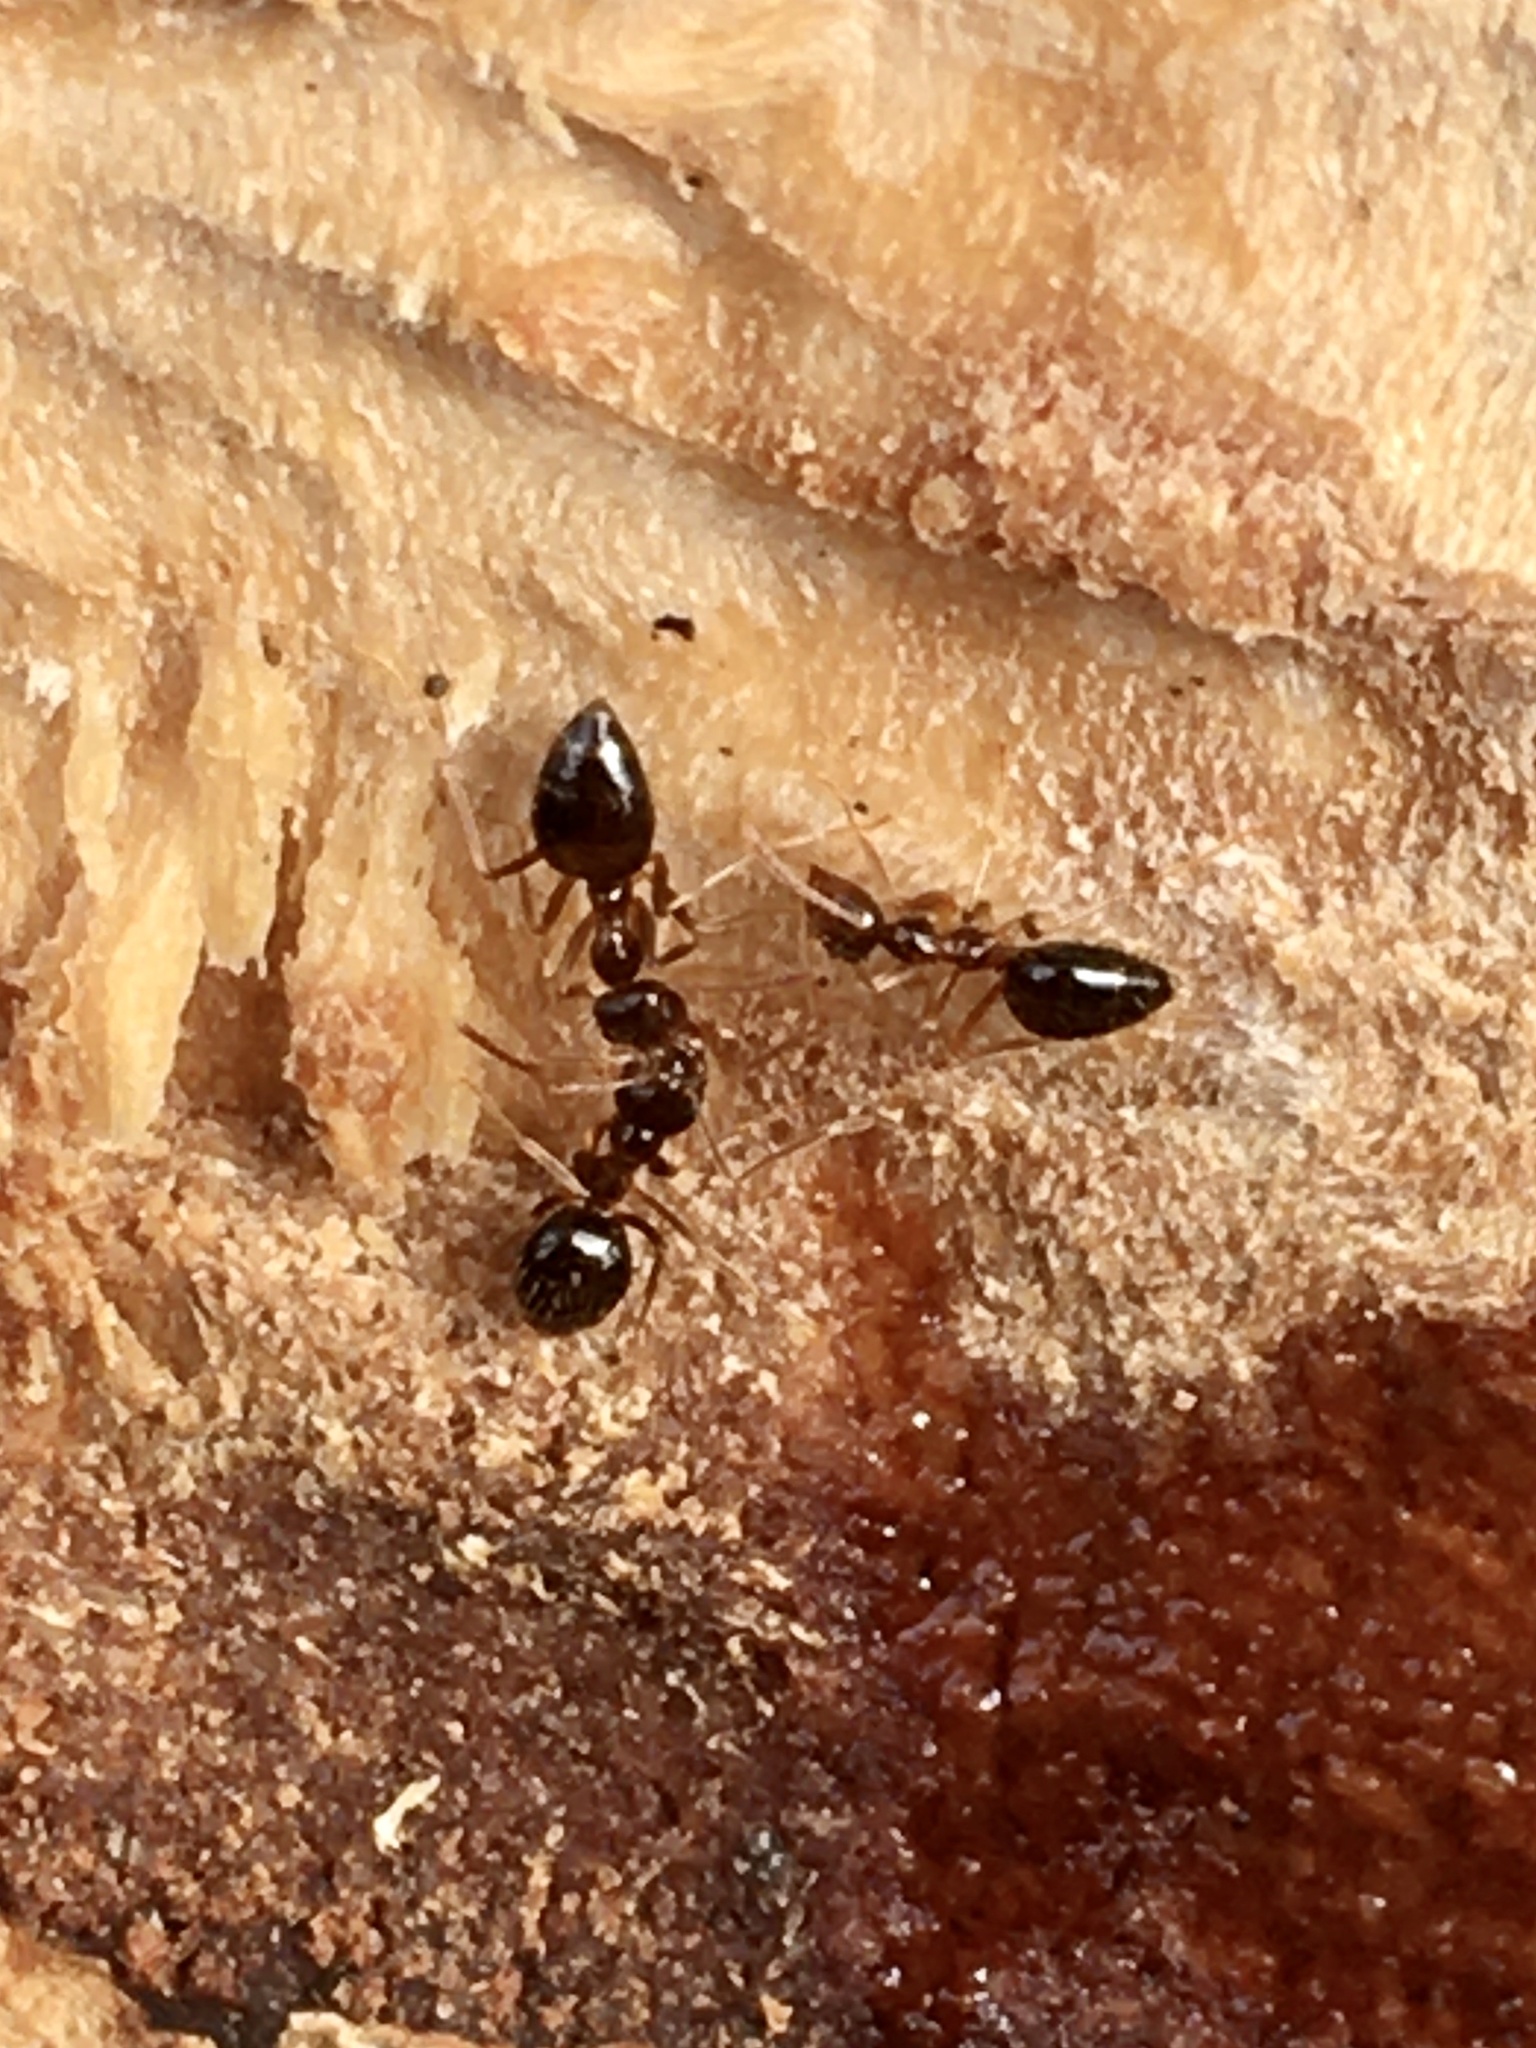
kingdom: Animalia
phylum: Arthropoda
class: Insecta
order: Hymenoptera
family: Formicidae
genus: Prenolepis
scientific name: Prenolepis imparis
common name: Small honey ant
